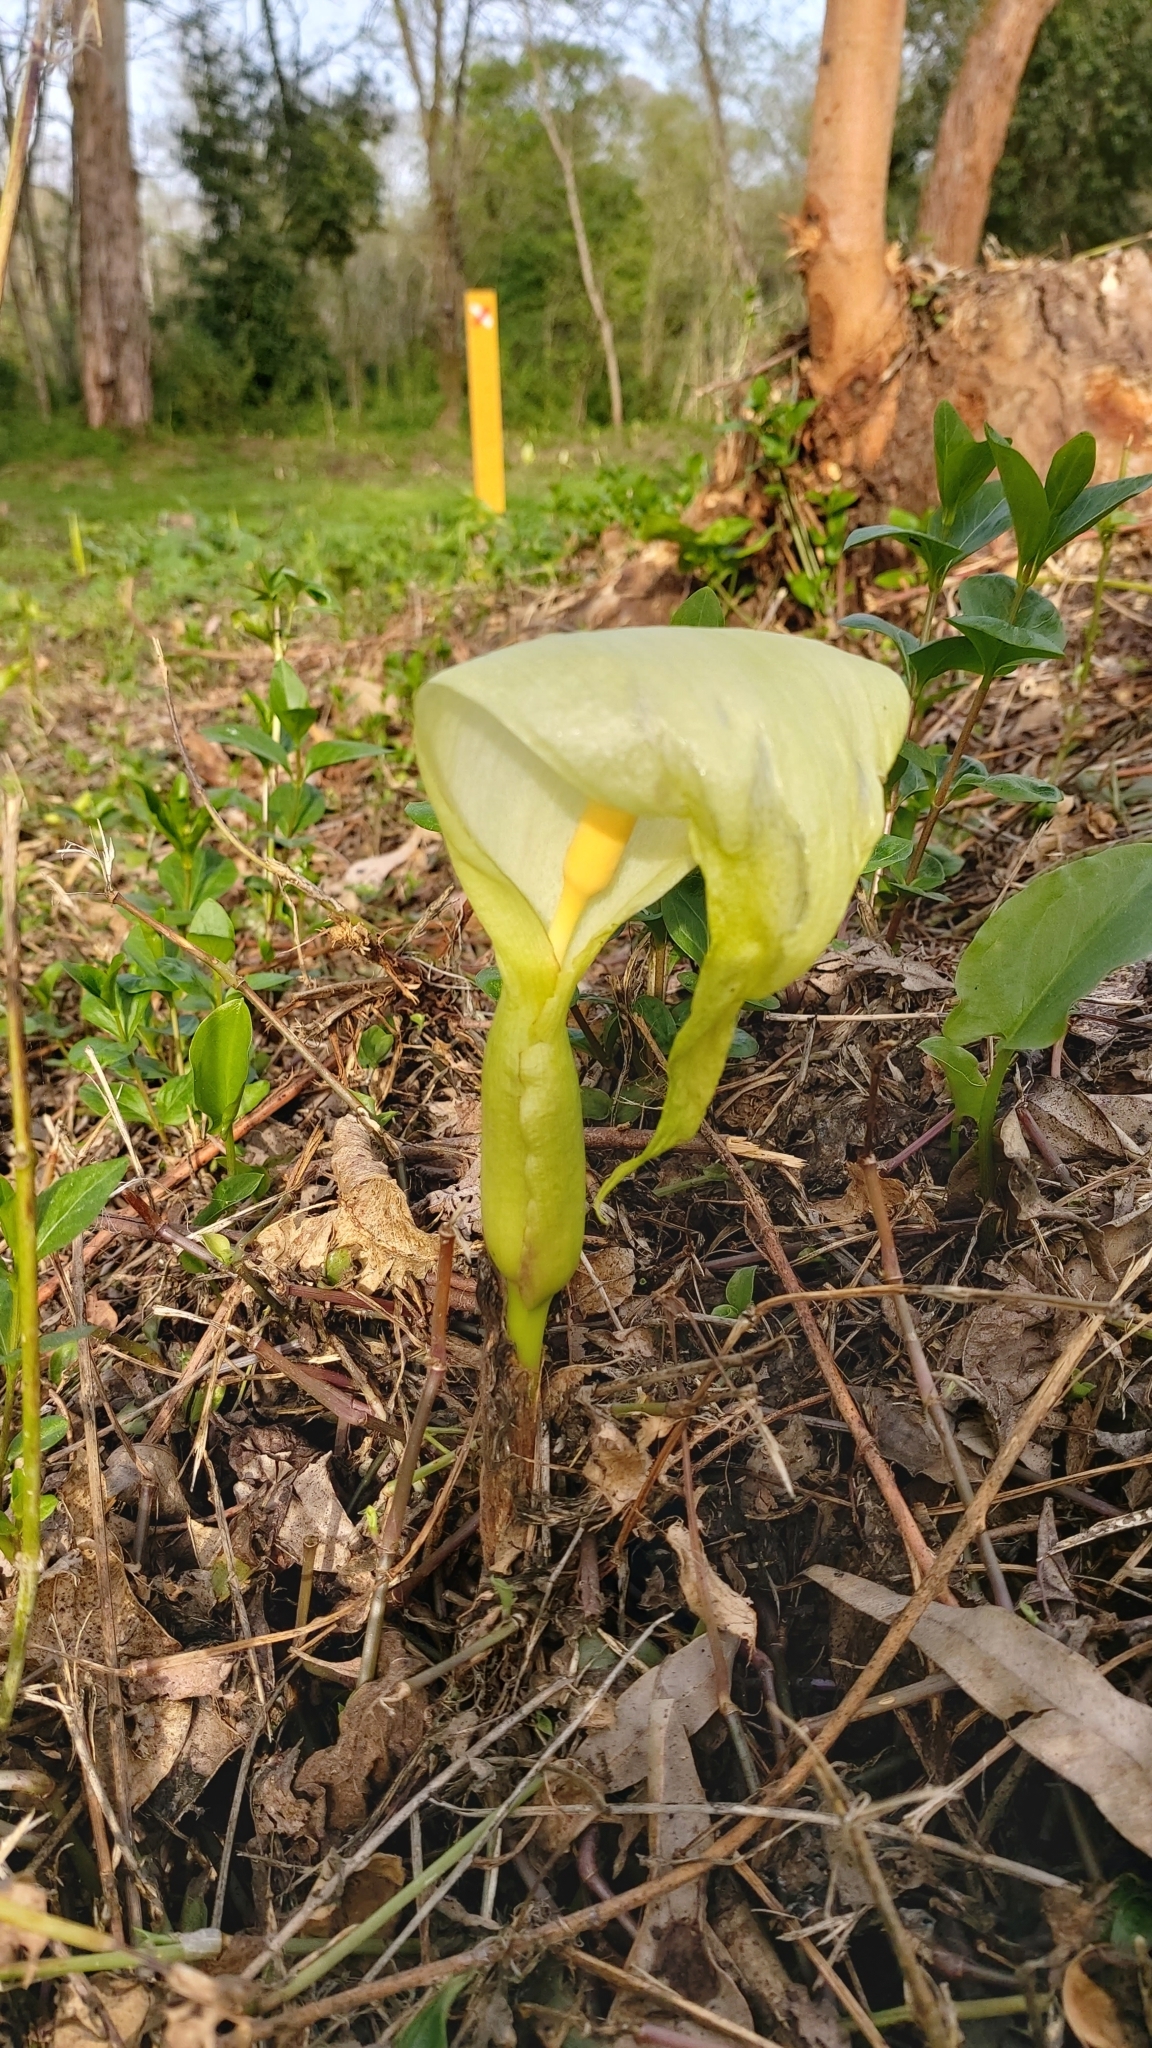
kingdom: Plantae
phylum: Tracheophyta
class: Liliopsida
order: Alismatales
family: Araceae
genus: Arum
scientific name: Arum italicum
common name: Italian lords-and-ladies
